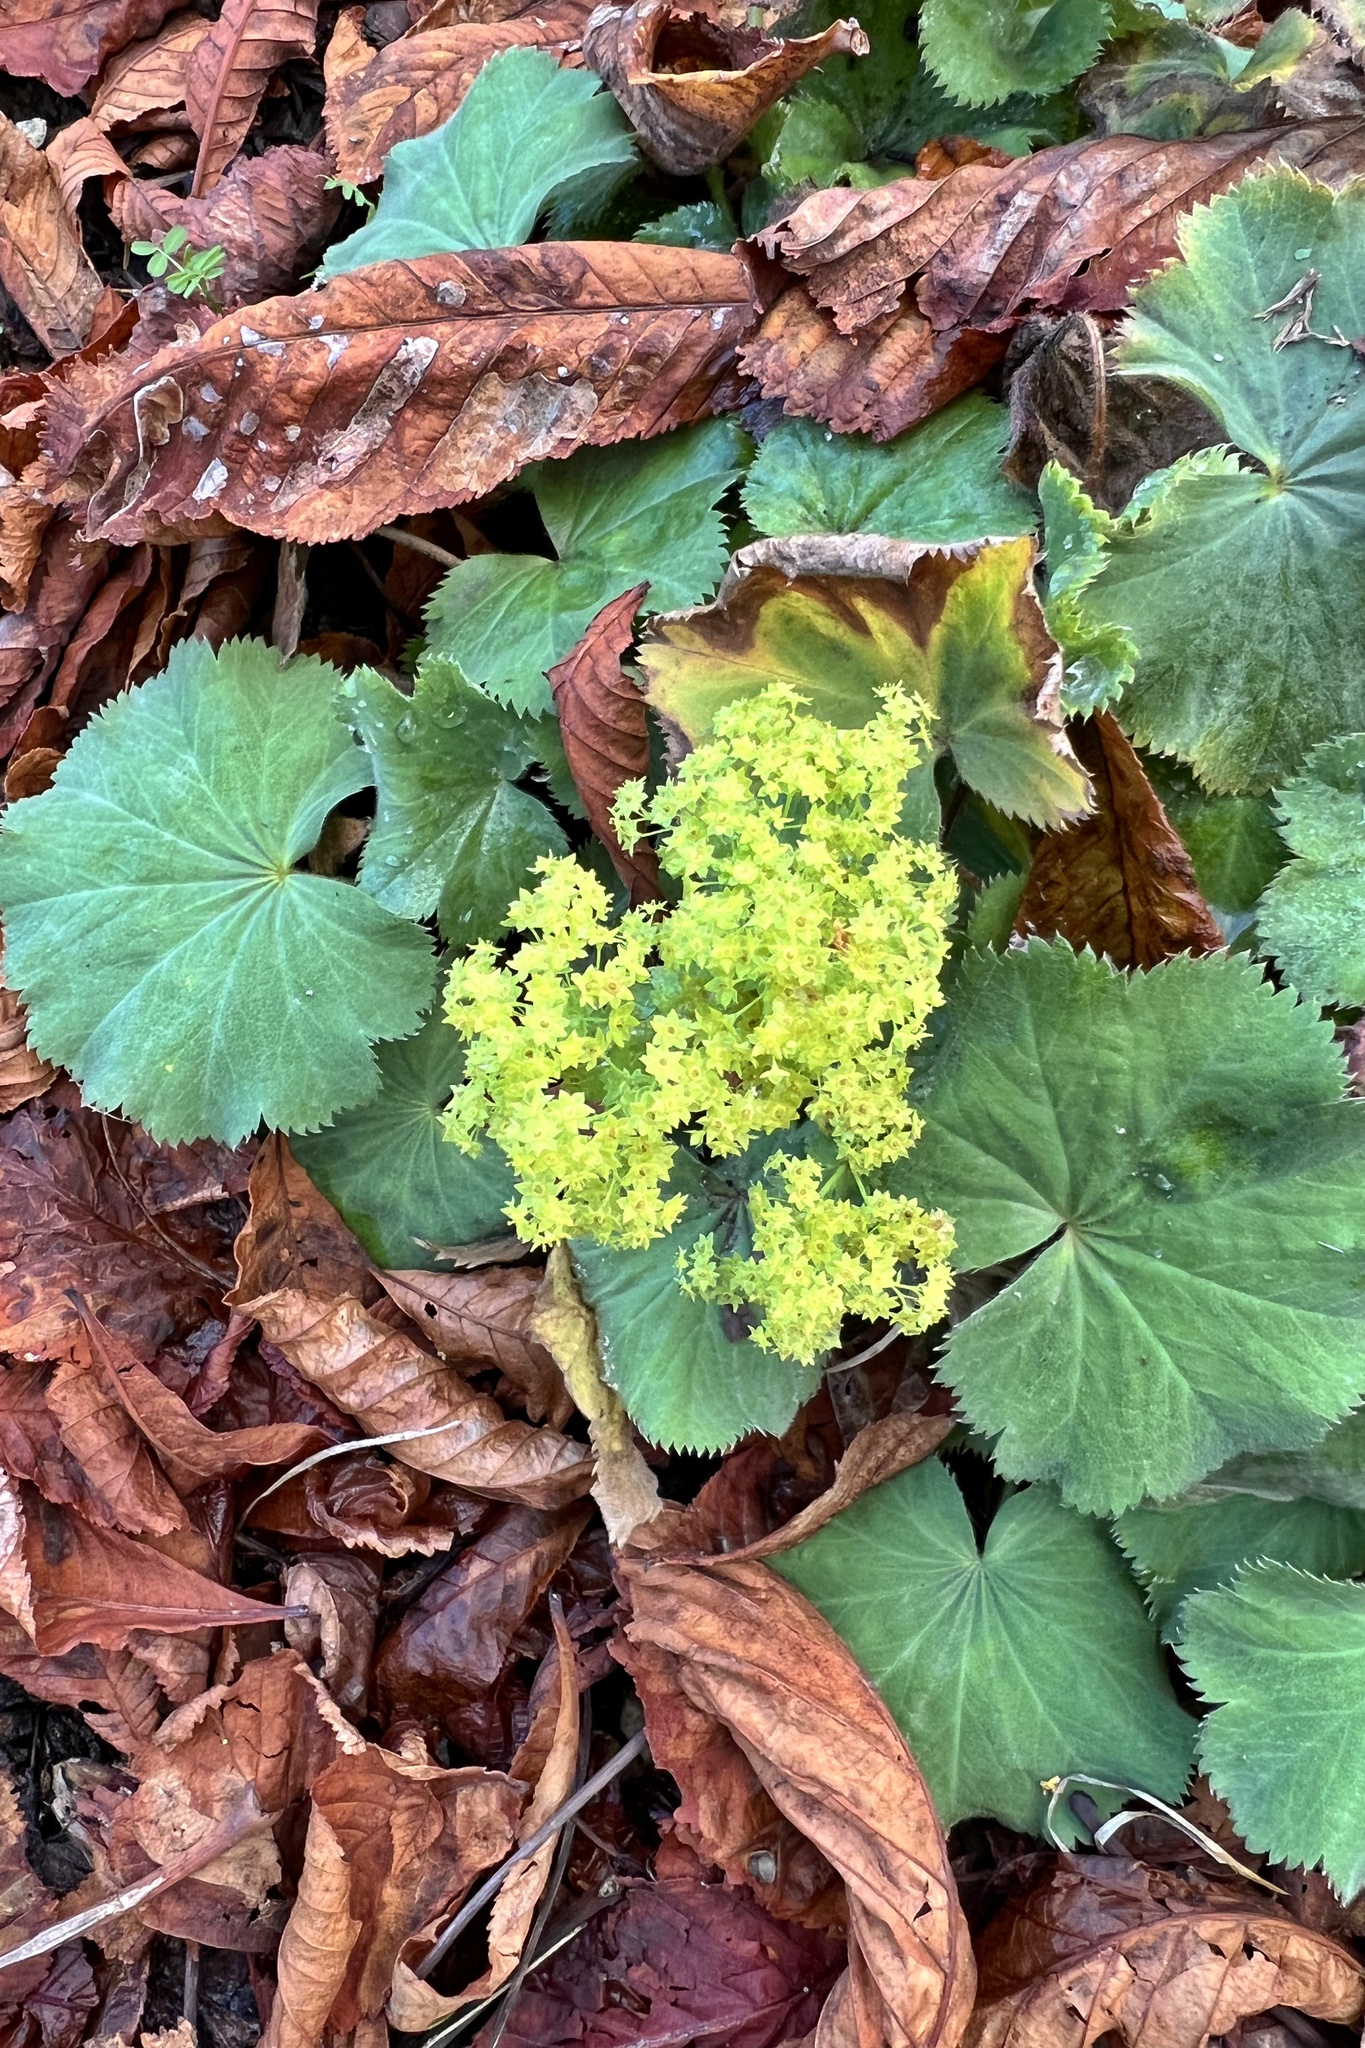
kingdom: Plantae
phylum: Tracheophyta
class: Magnoliopsida
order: Rosales
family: Rosaceae
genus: Alchemilla
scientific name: Alchemilla mollis
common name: Lady's-mantle
